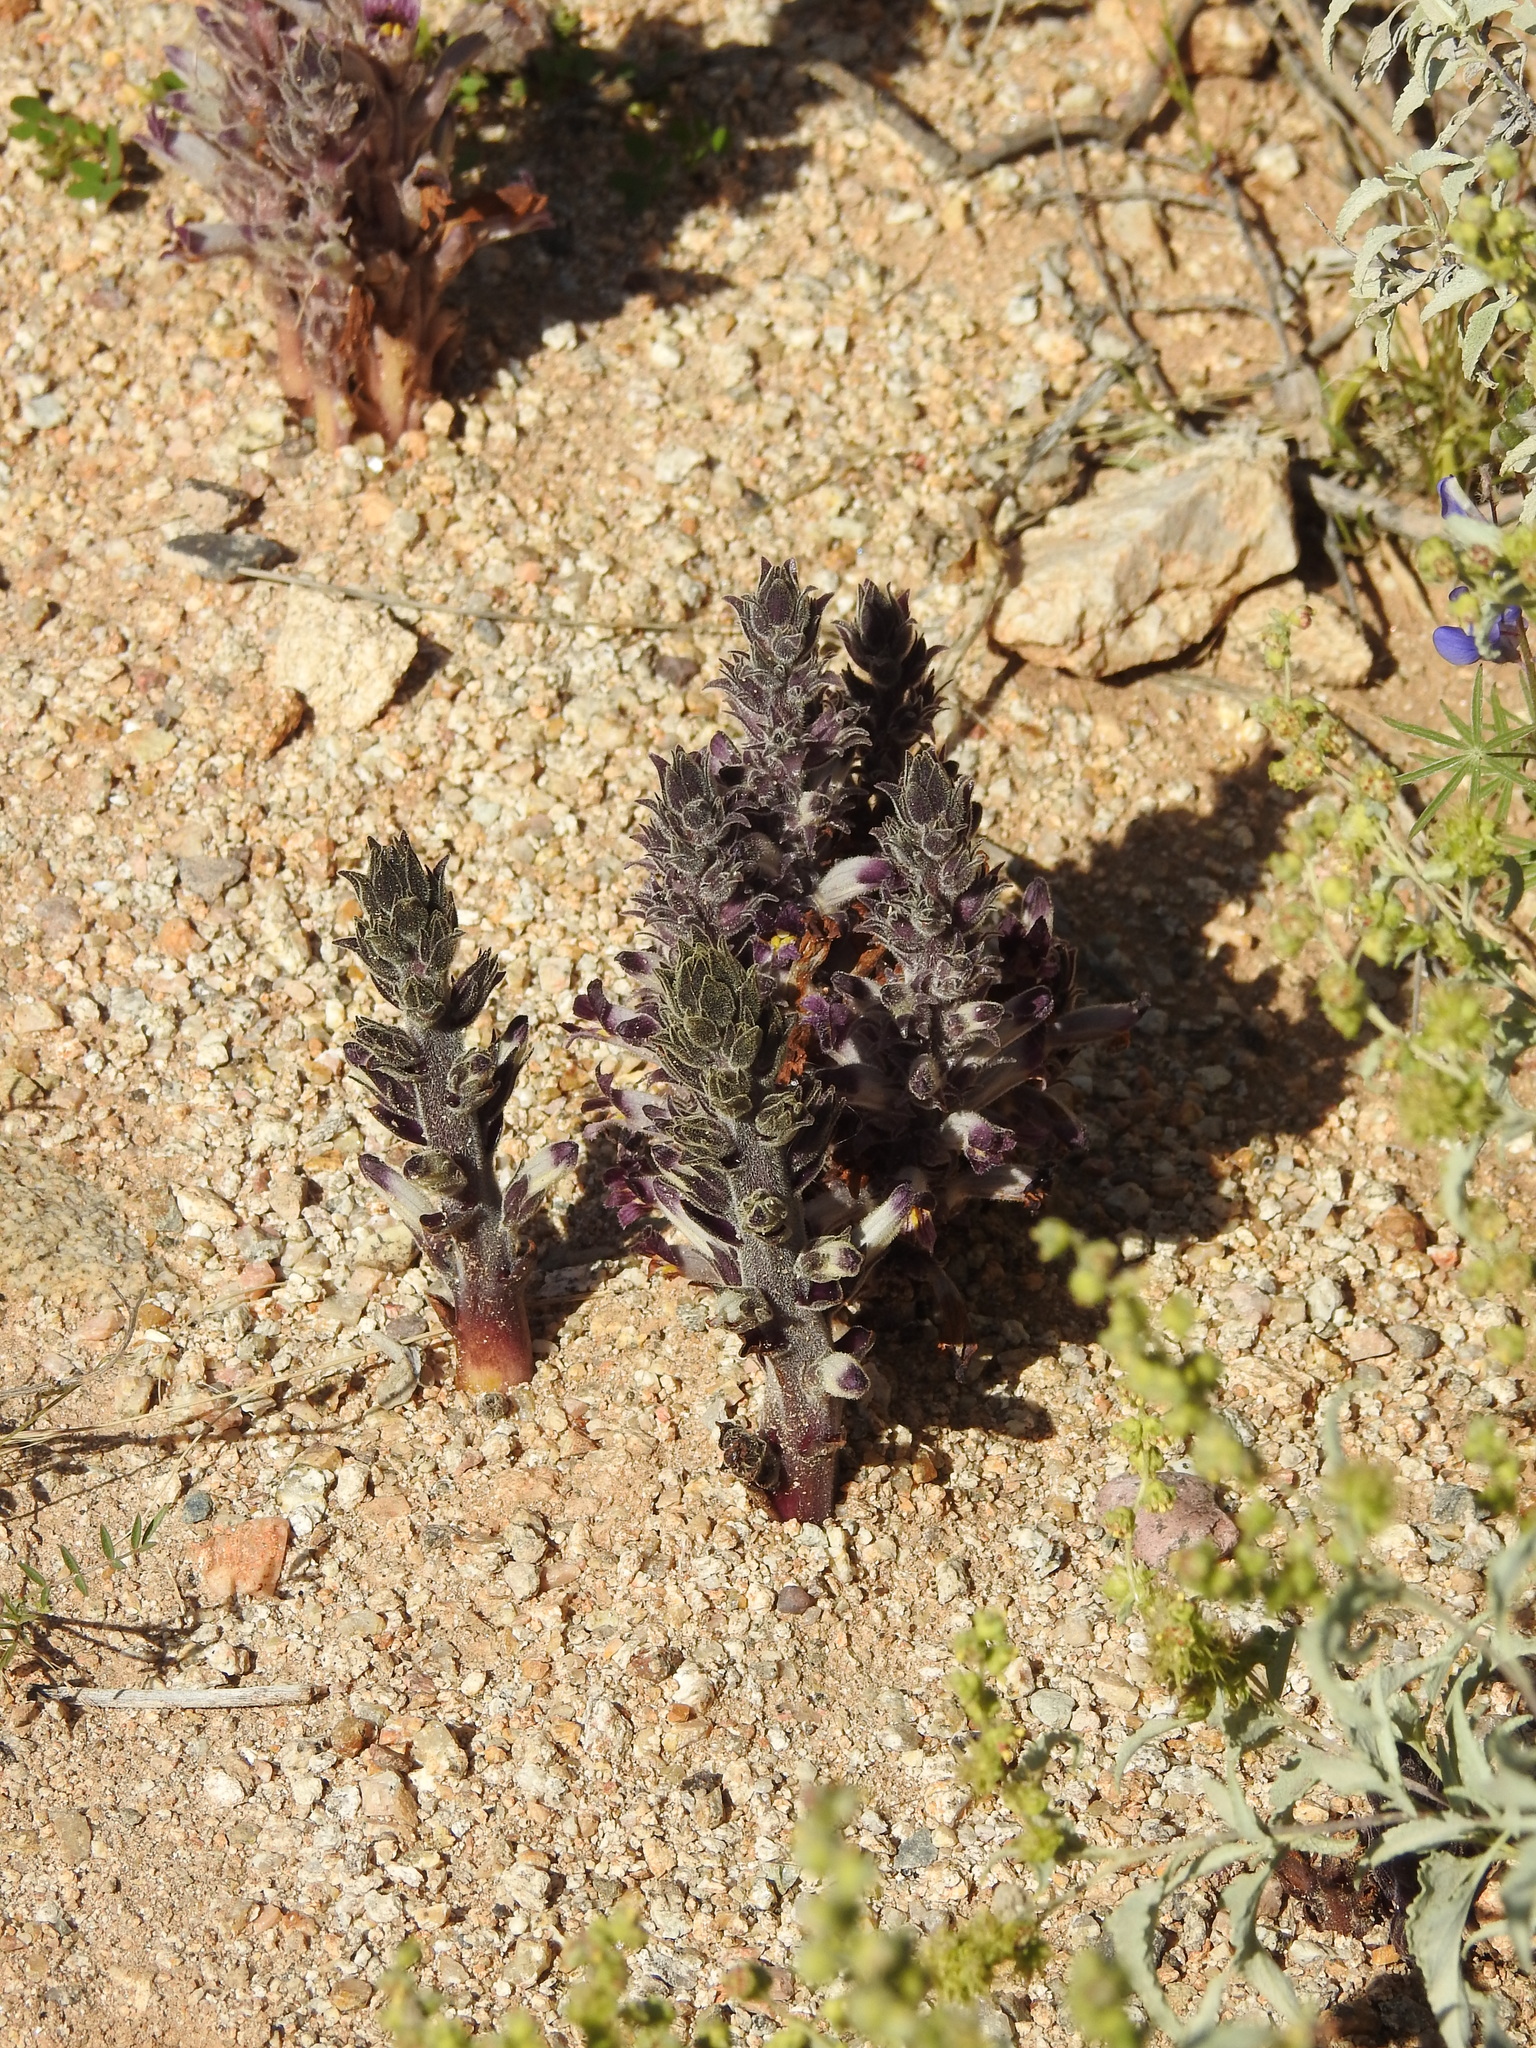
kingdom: Plantae
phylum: Tracheophyta
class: Magnoliopsida
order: Lamiales
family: Orobanchaceae
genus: Aphyllon
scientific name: Aphyllon cooperi
